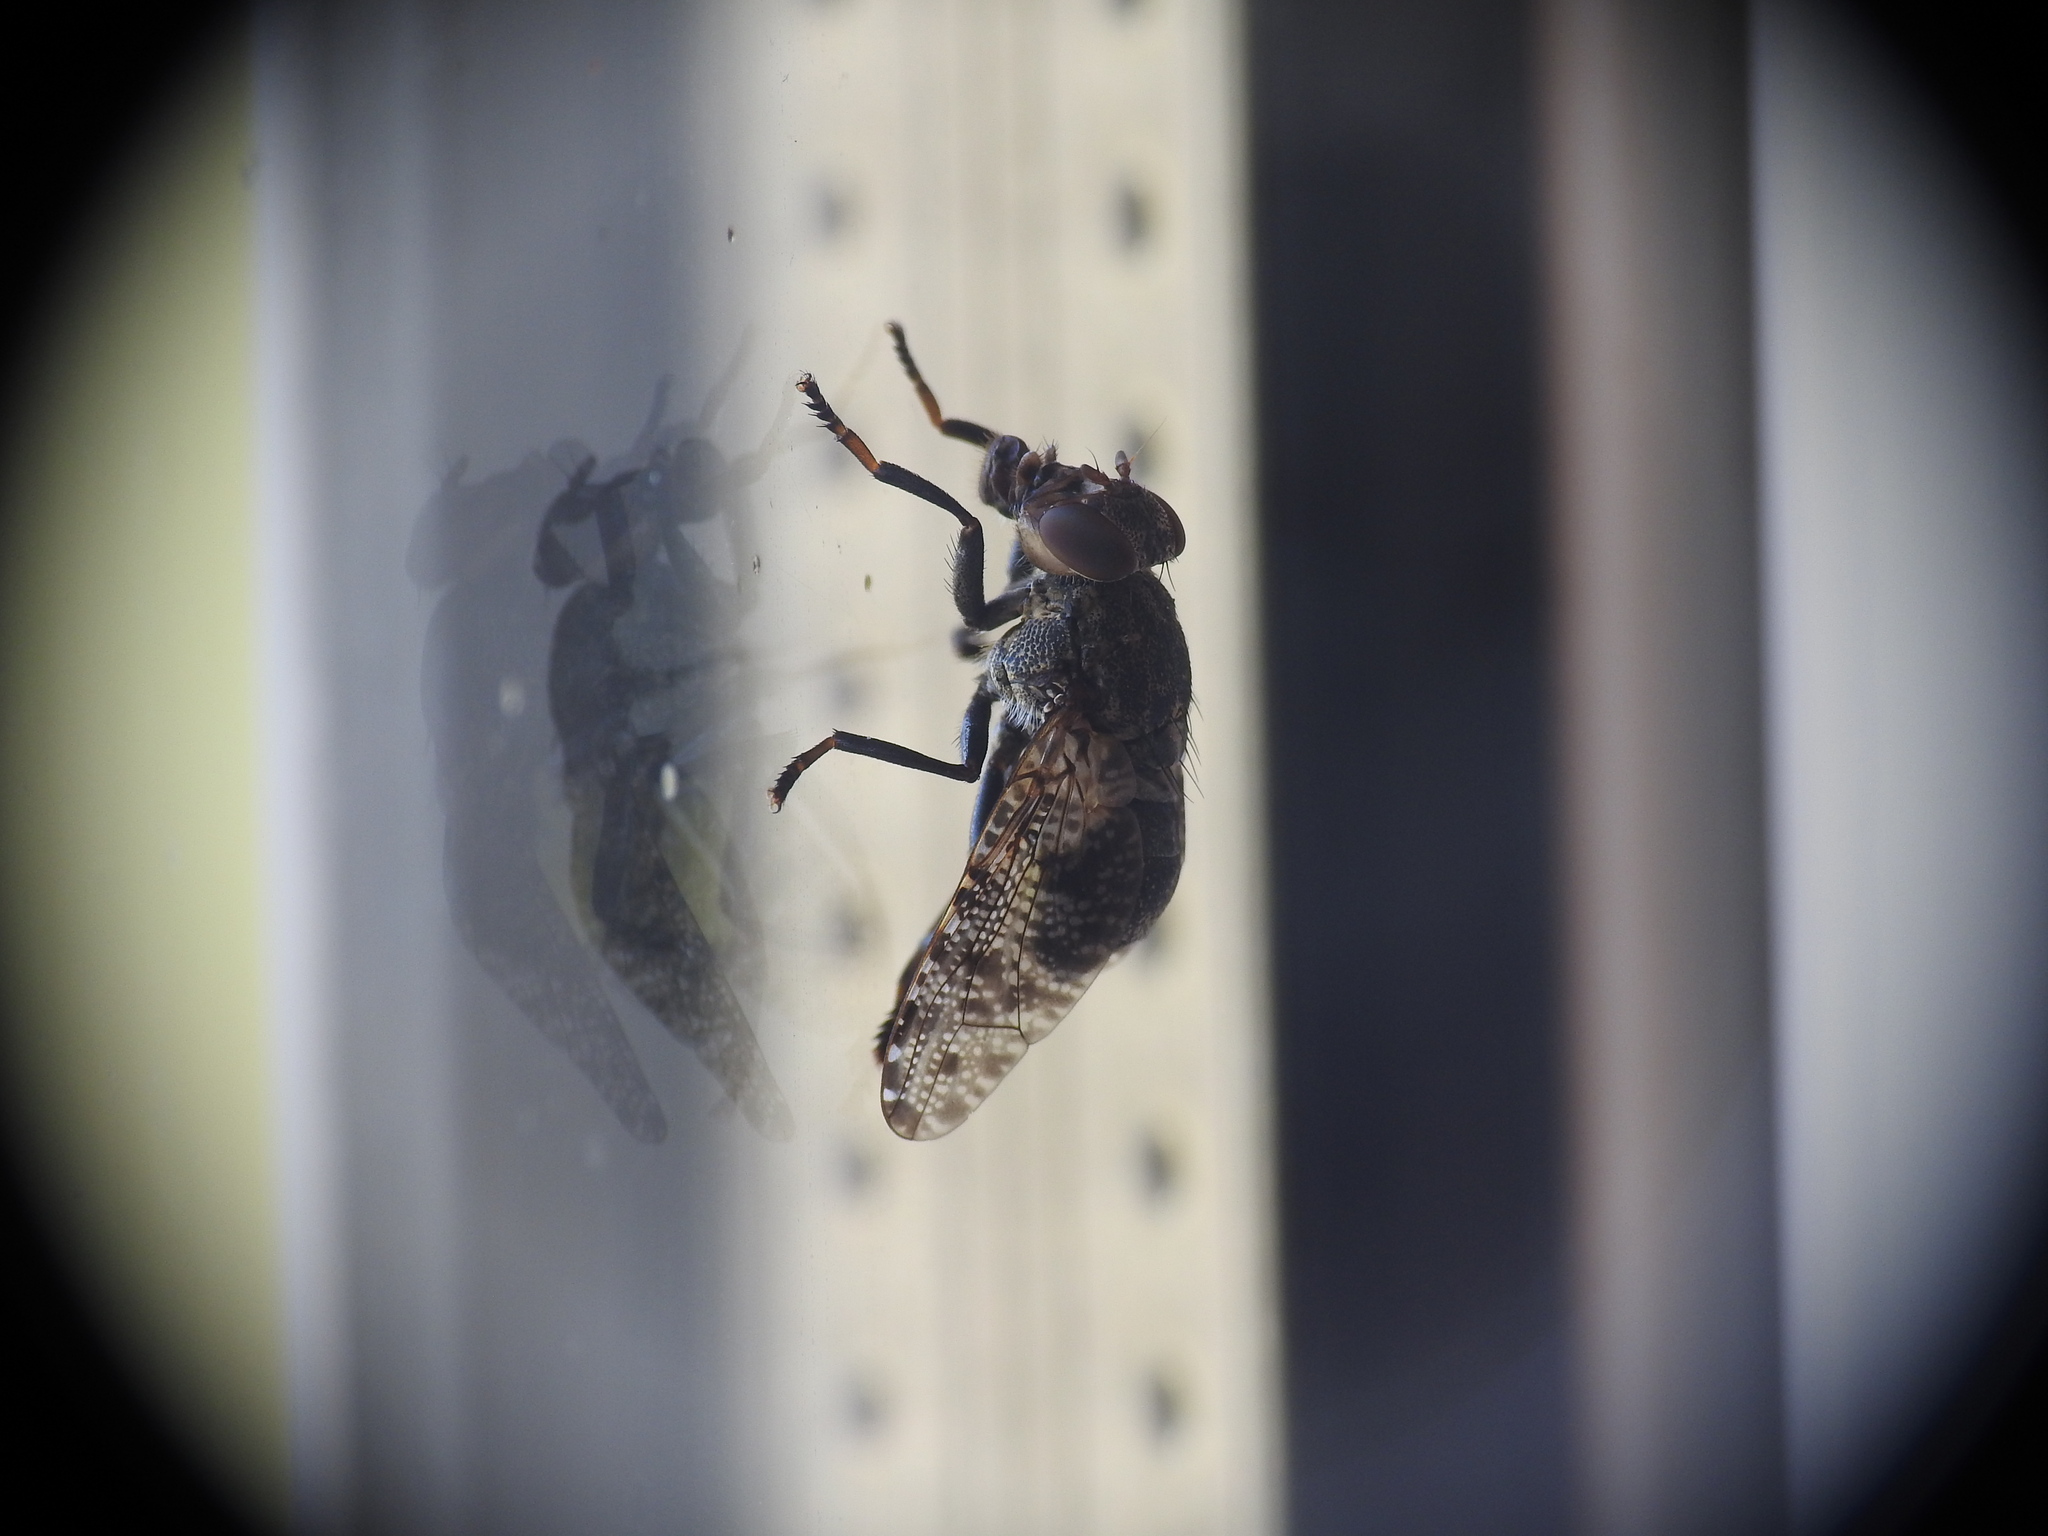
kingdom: Animalia
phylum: Arthropoda
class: Insecta
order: Diptera
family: Platystomatidae
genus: Platystoma
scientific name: Platystoma lugubre
